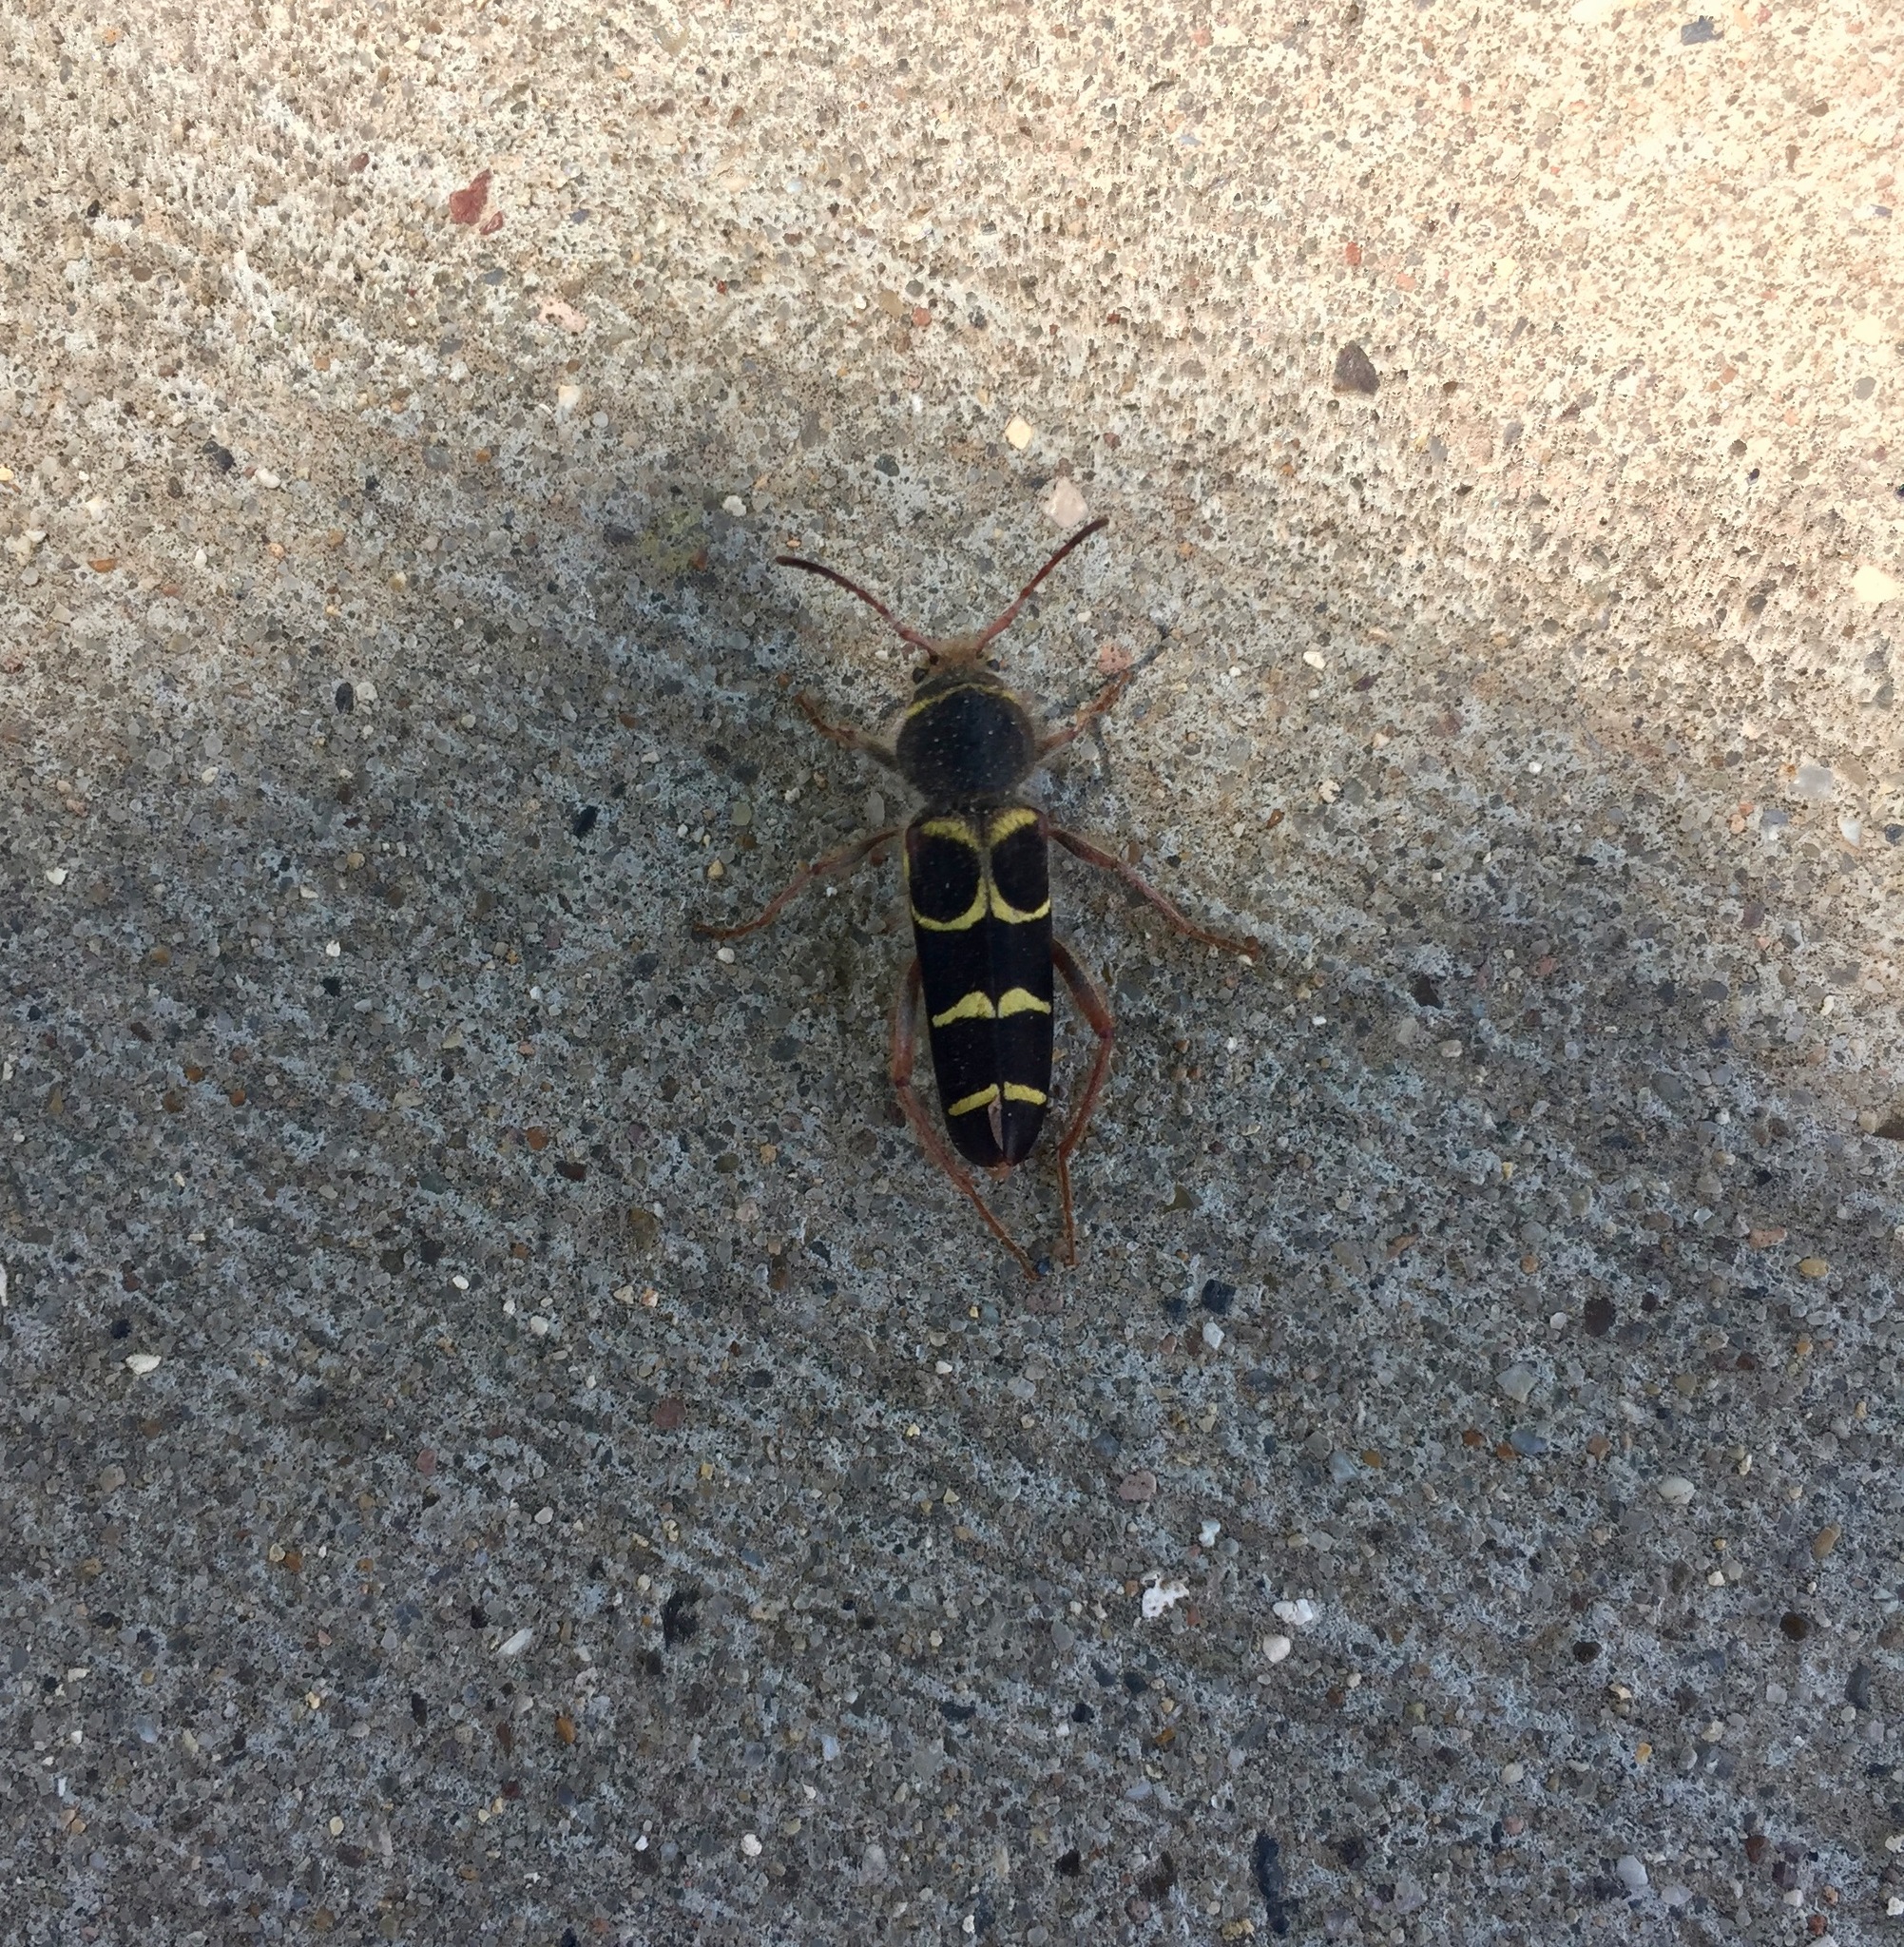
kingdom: Animalia
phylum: Arthropoda
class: Insecta
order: Coleoptera
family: Cerambycidae
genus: Neoclytus
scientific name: Neoclytus caprea
